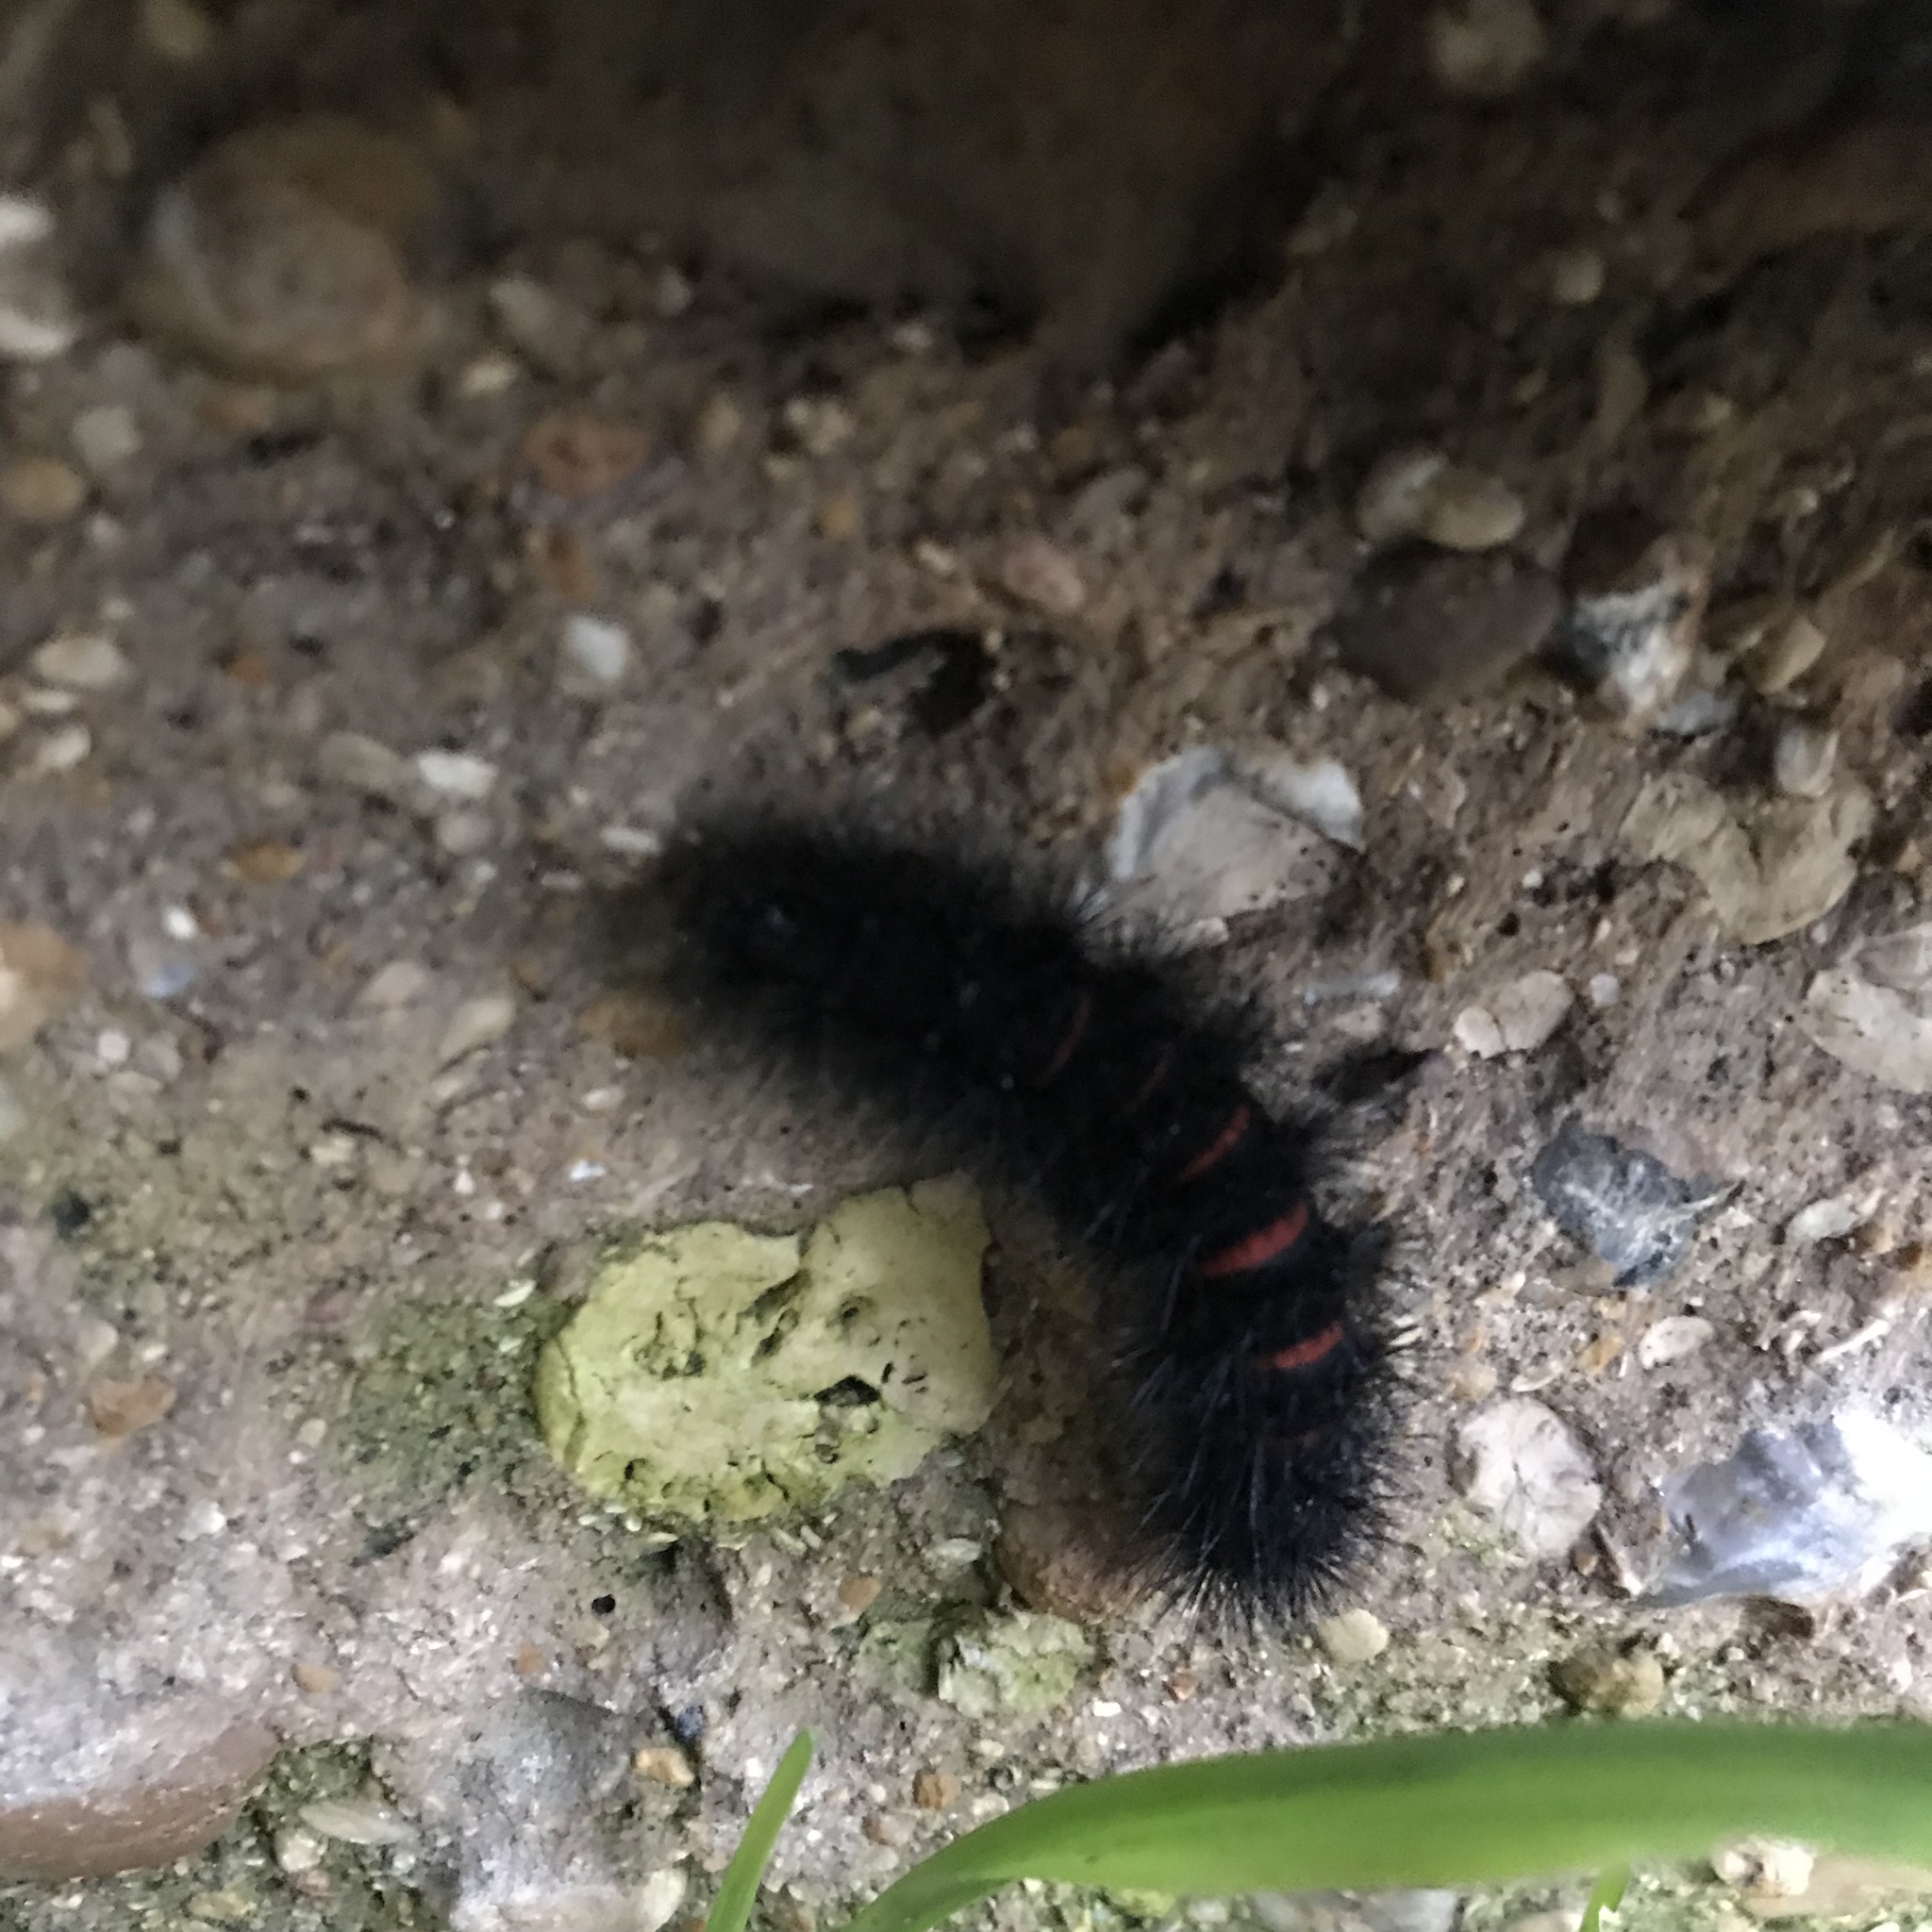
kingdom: Animalia
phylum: Arthropoda
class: Insecta
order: Lepidoptera
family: Erebidae
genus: Hypercompe
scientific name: Hypercompe scribonia
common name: Giant leopard moth
